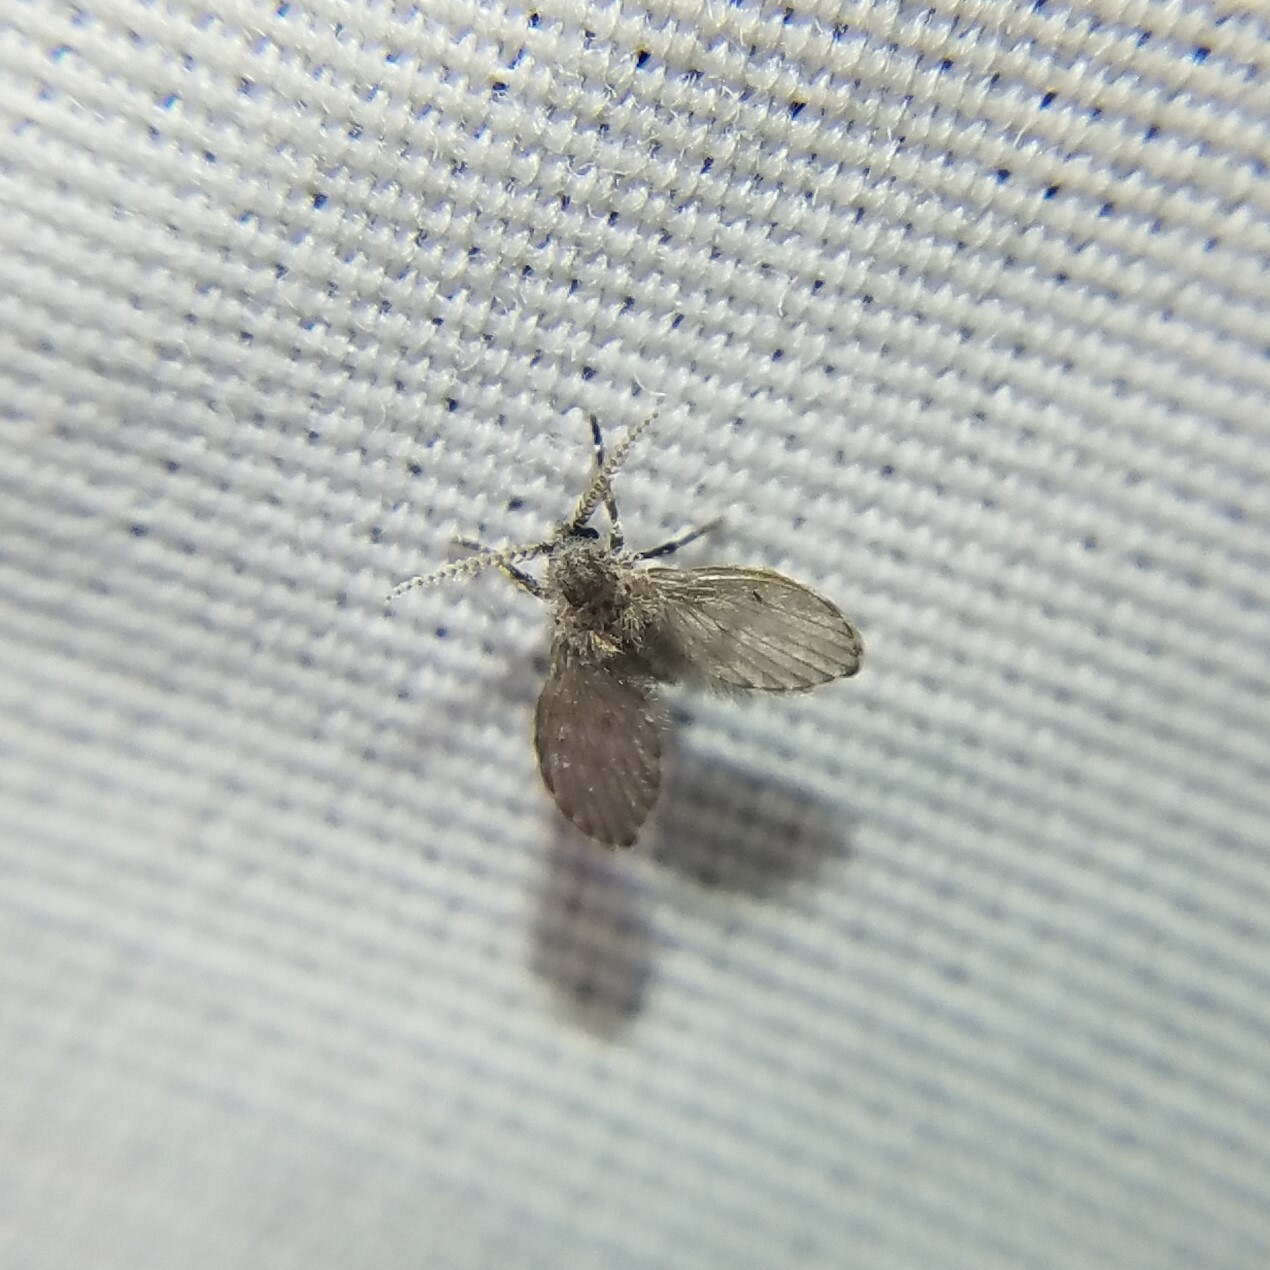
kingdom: Animalia
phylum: Arthropoda
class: Insecta
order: Diptera
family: Psychodidae
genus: Clogmia
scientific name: Clogmia albipunctatus
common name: White-spotted moth fly
